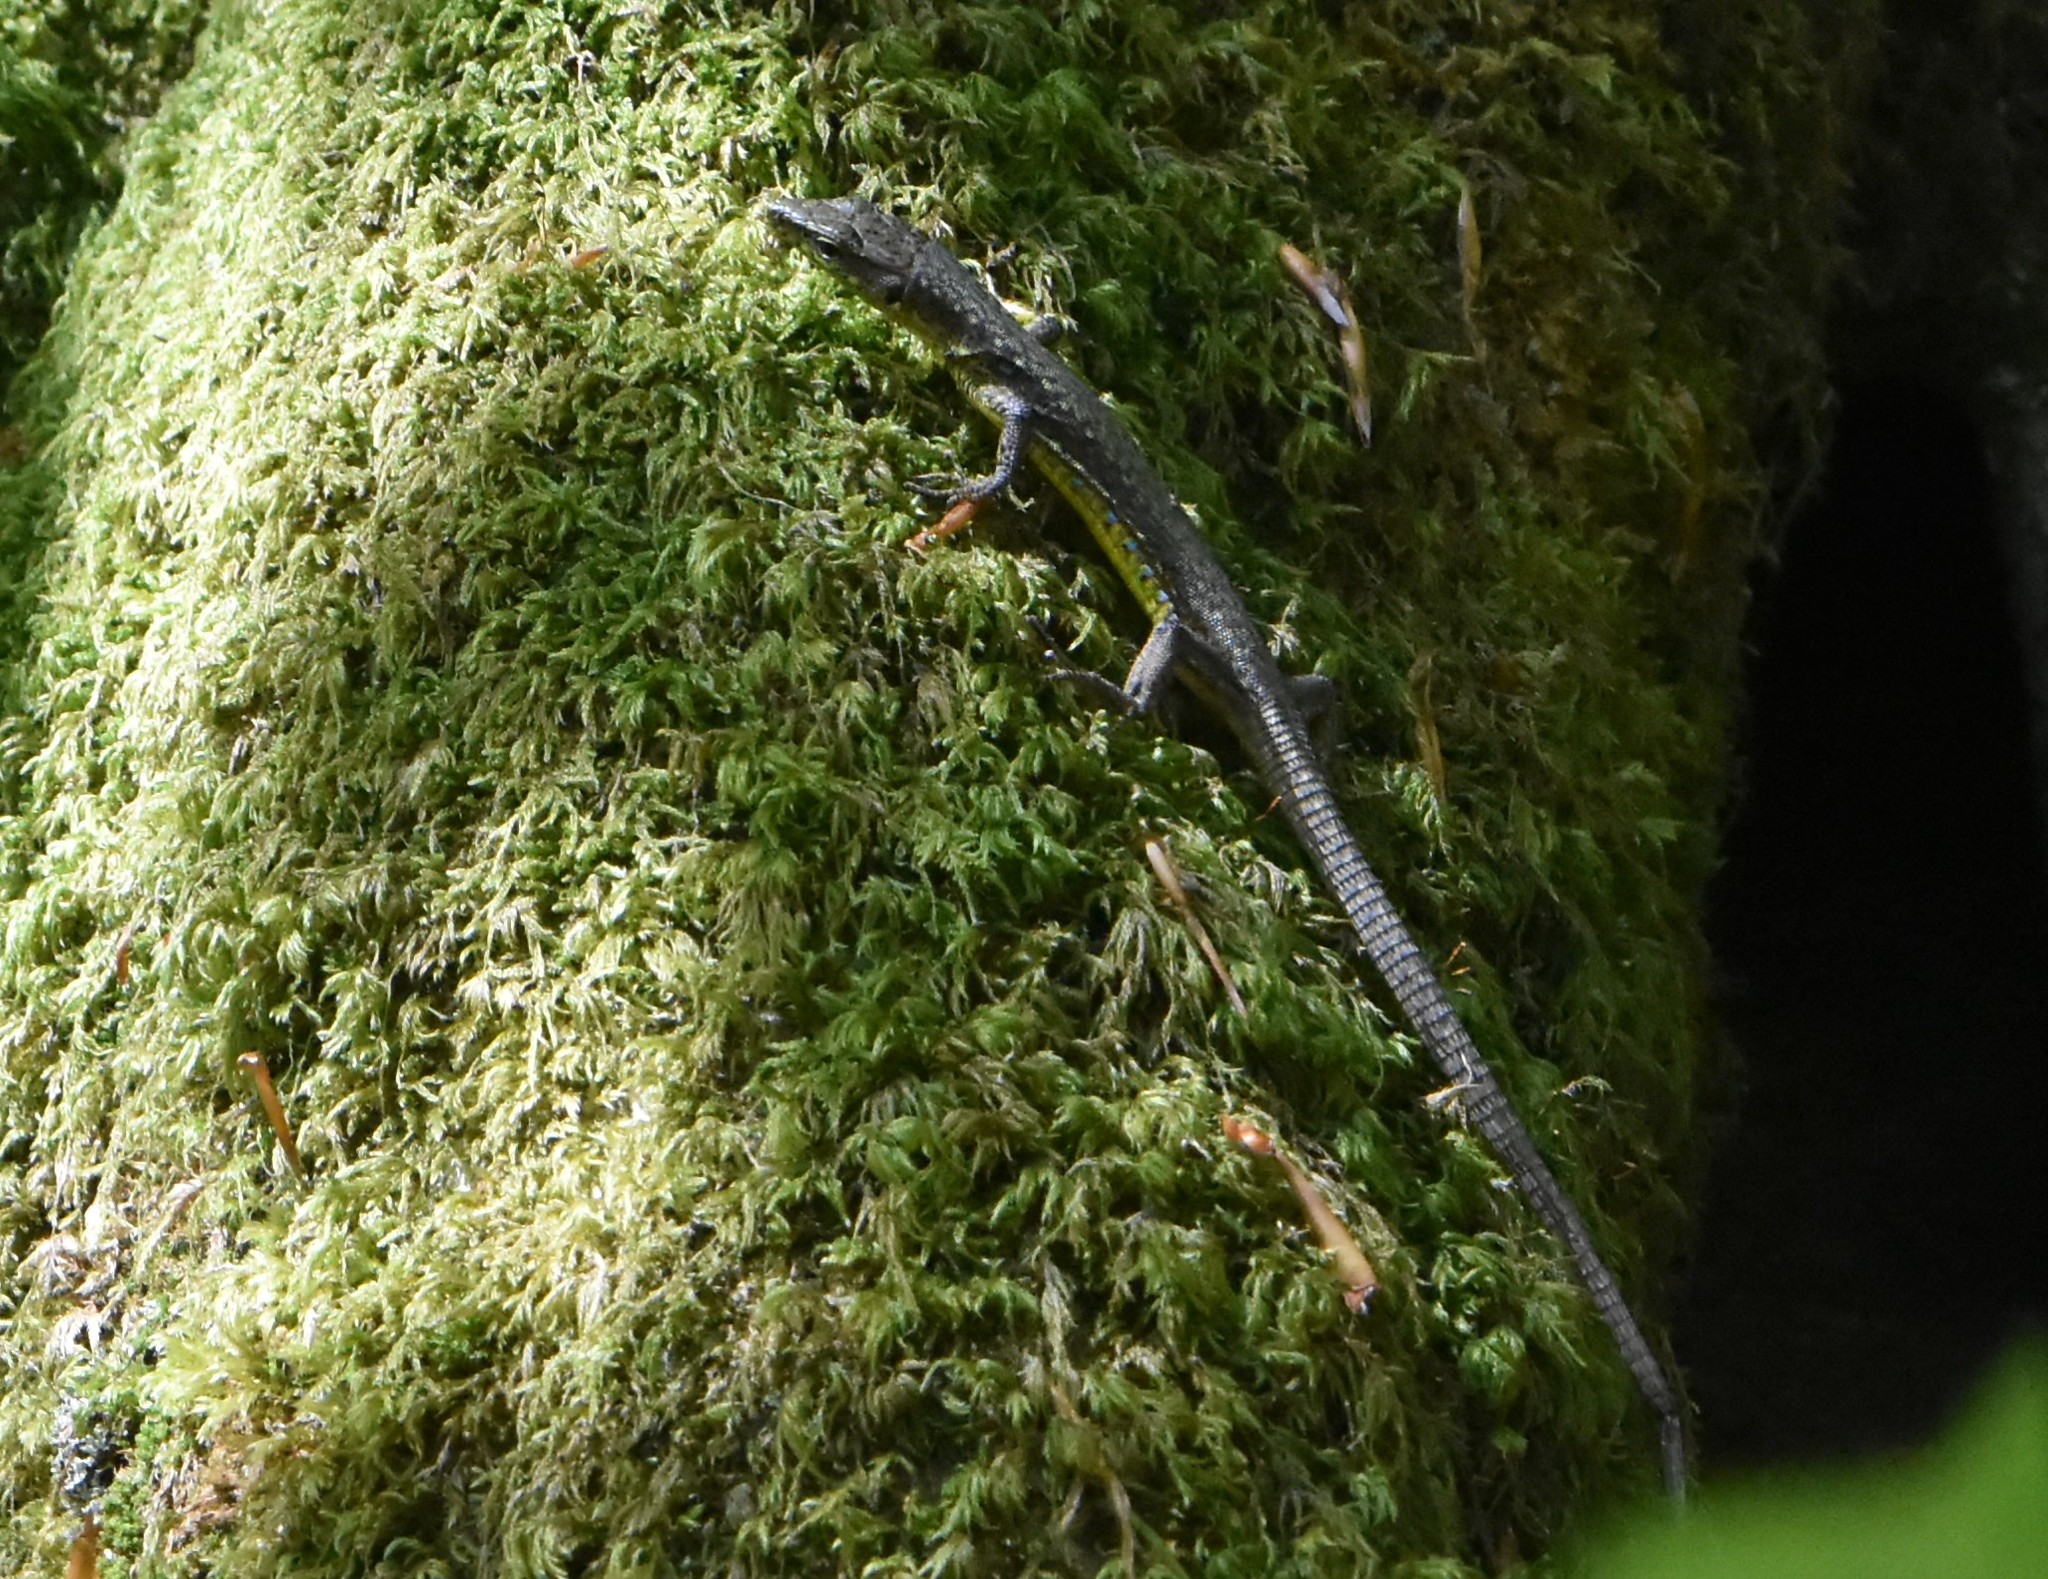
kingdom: Animalia
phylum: Chordata
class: Squamata
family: Lacertidae
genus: Darevskia
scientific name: Darevskia brauneri
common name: Brauner's rock lizard
